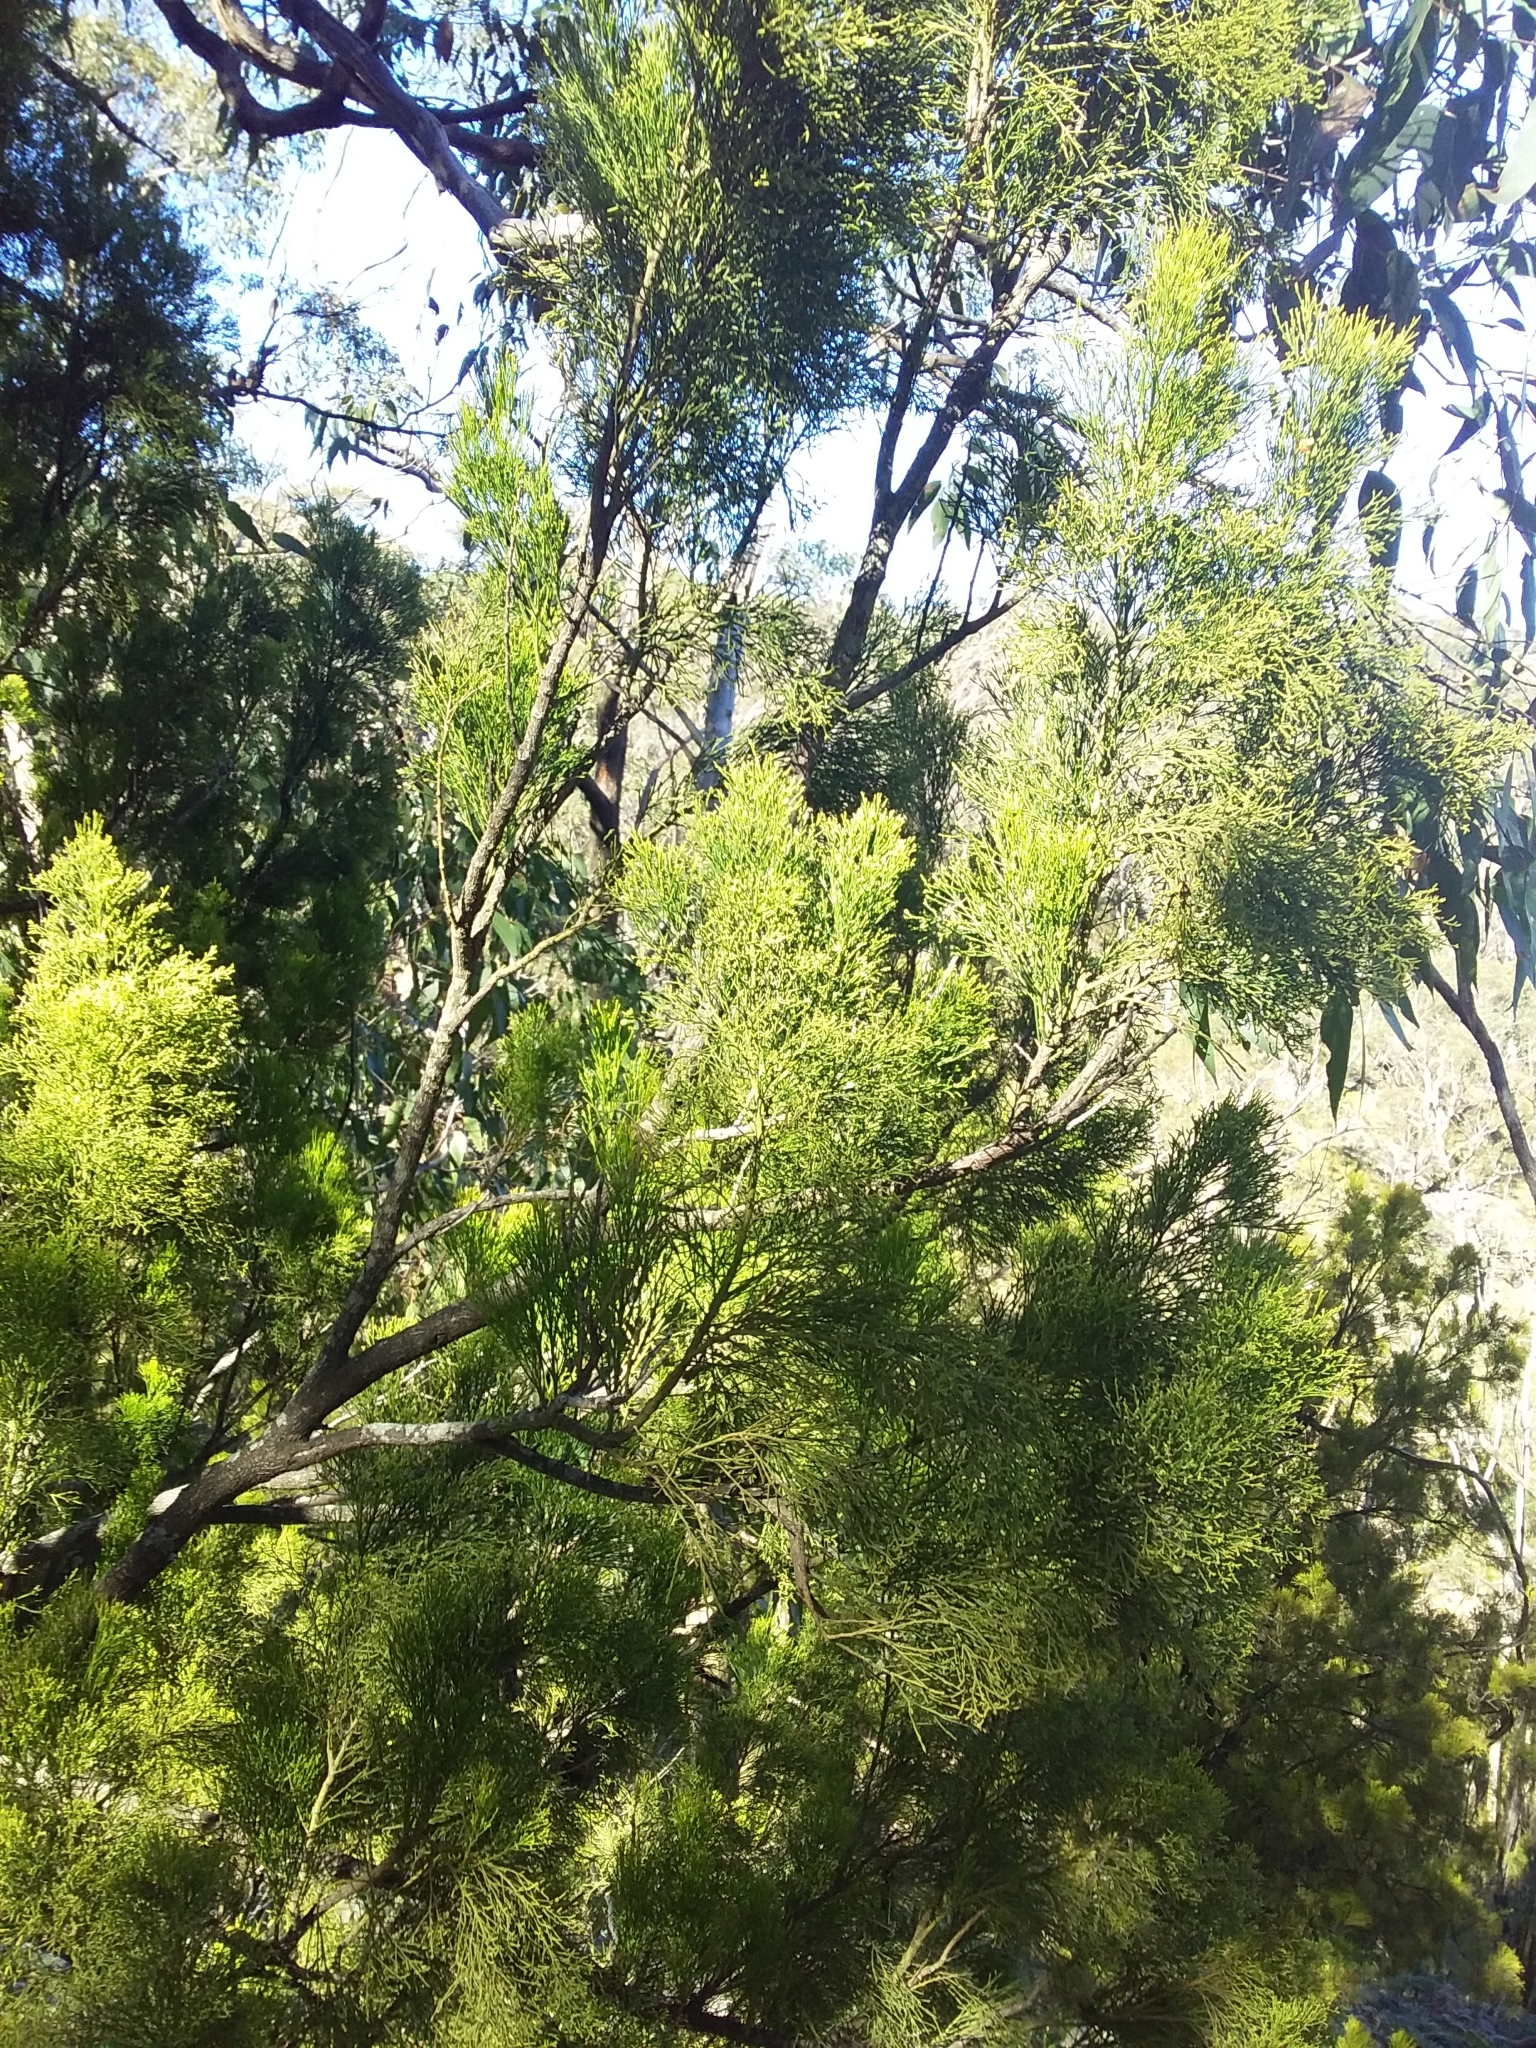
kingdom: Plantae
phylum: Tracheophyta
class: Magnoliopsida
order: Santalales
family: Santalaceae
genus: Exocarpos
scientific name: Exocarpos cupressiformis
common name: Cherry ballart
